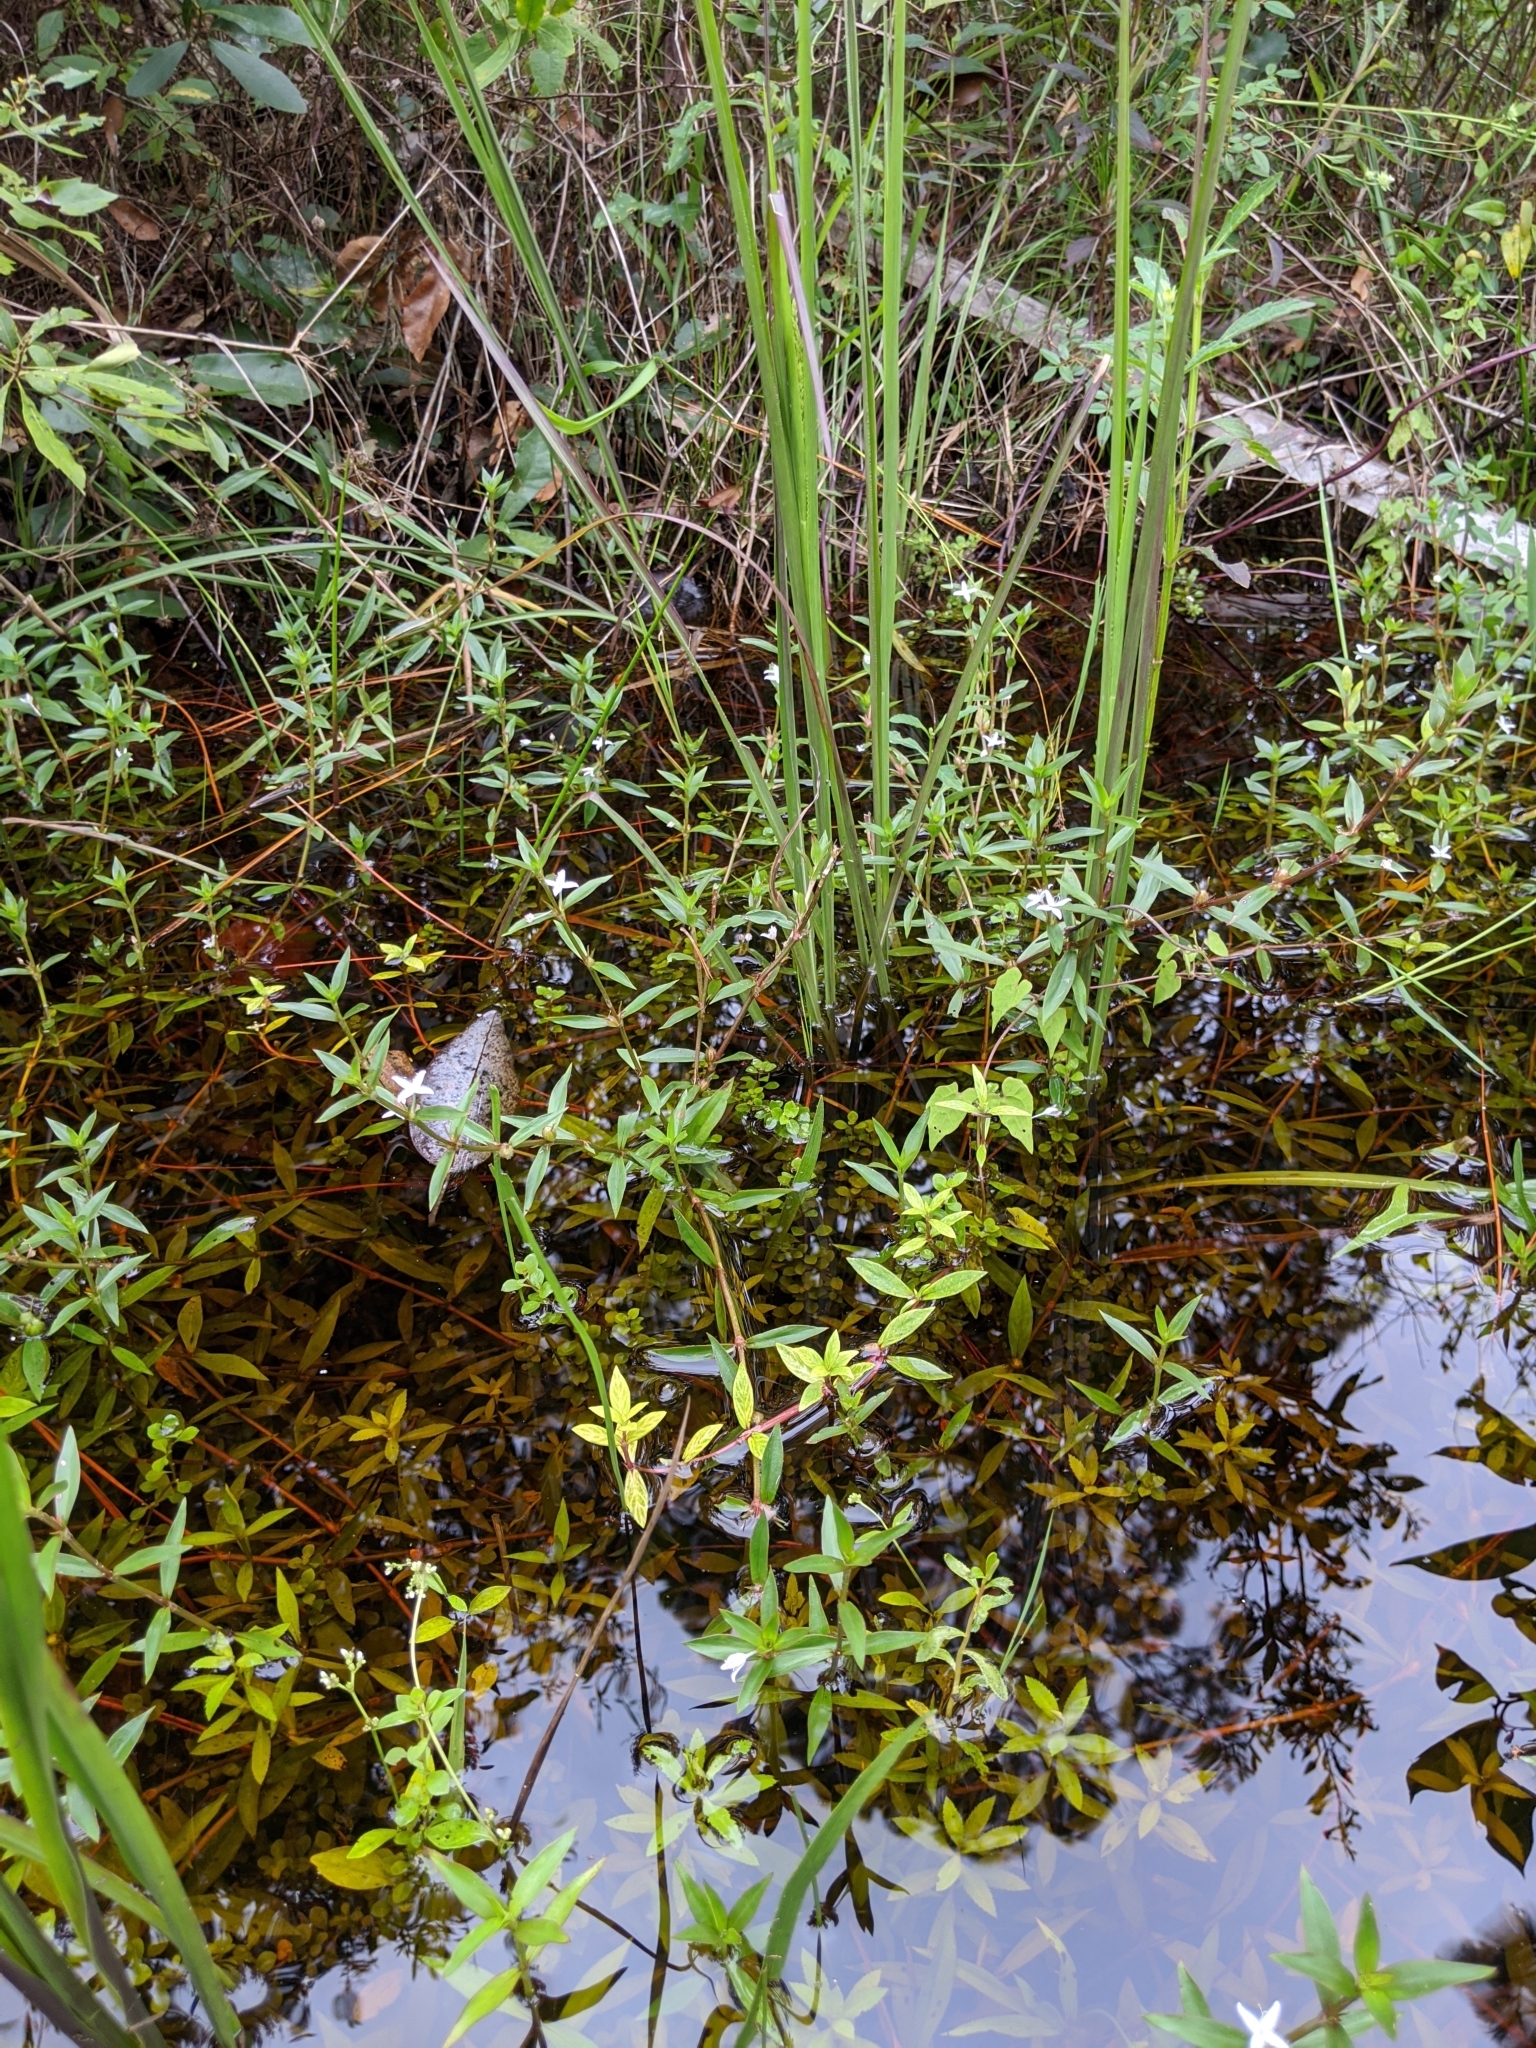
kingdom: Plantae
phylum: Tracheophyta
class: Magnoliopsida
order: Gentianales
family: Rubiaceae
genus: Diodia
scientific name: Diodia virginiana
